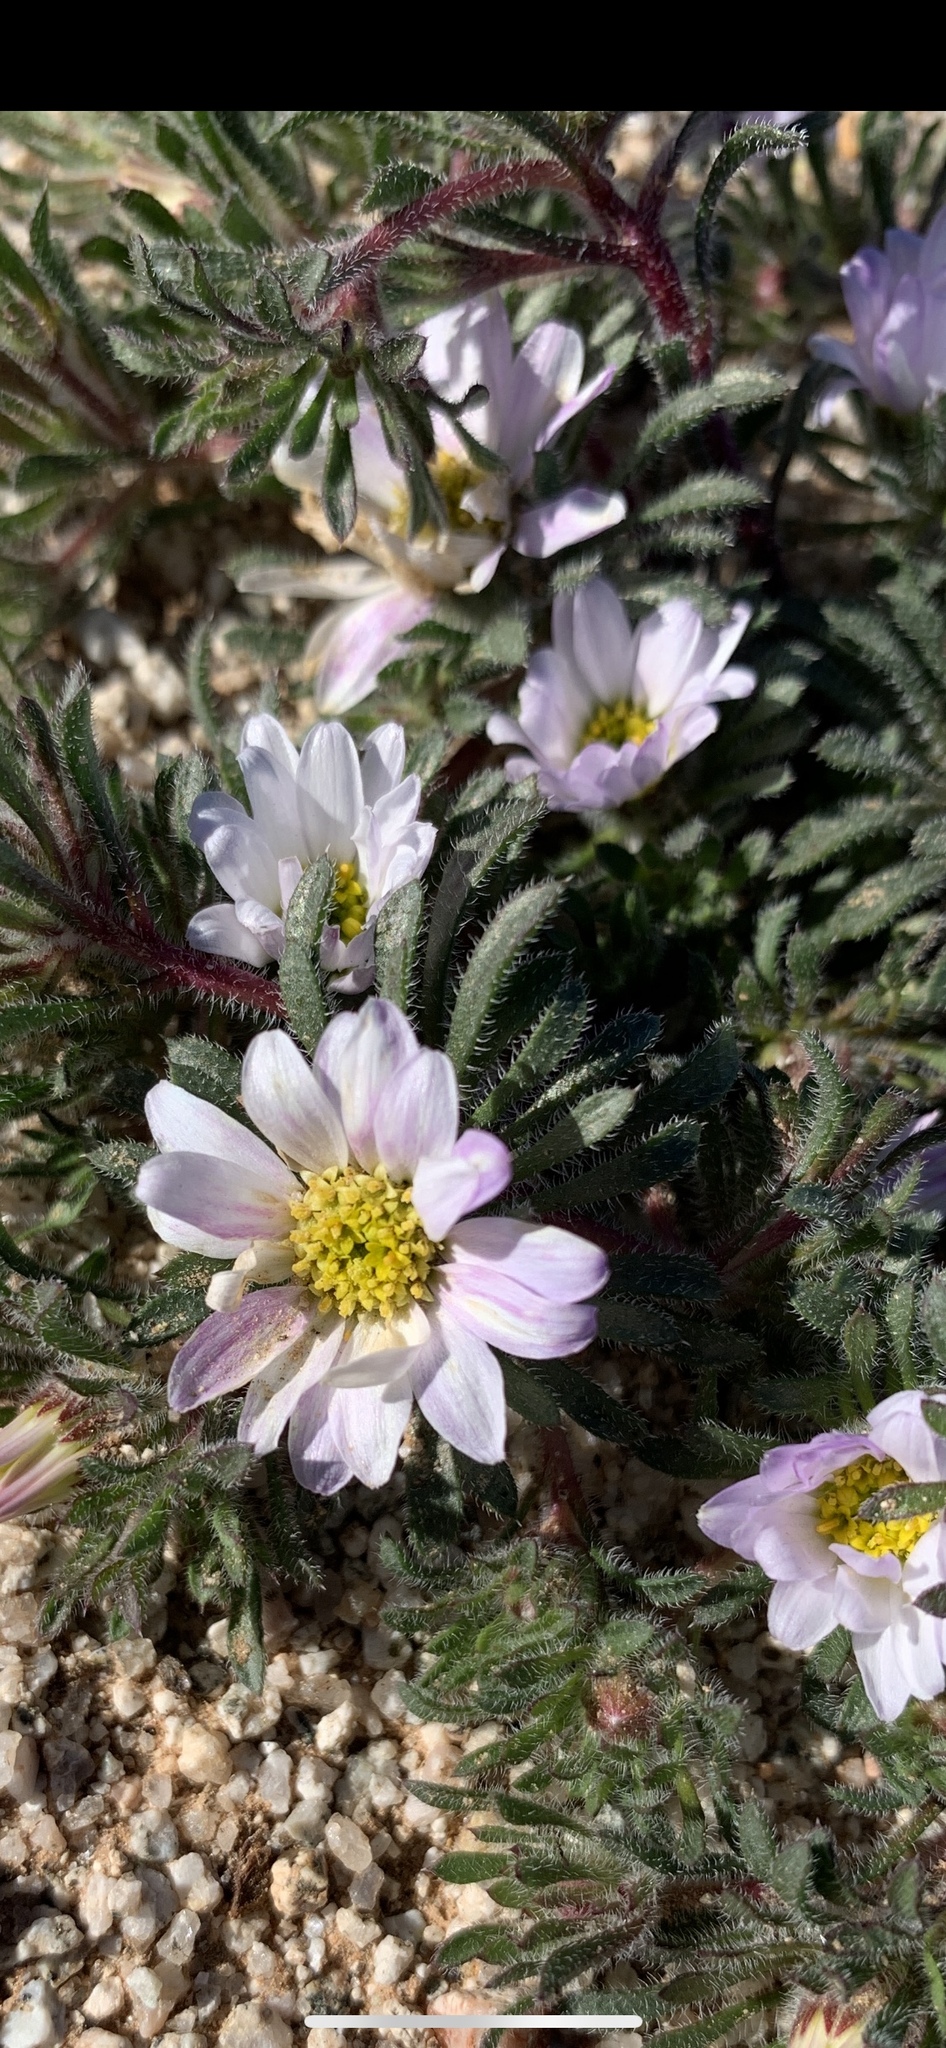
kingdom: Plantae
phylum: Tracheophyta
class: Magnoliopsida
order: Asterales
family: Asteraceae
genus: Monoptilon
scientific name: Monoptilon bellioides
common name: Bristly desertstar
